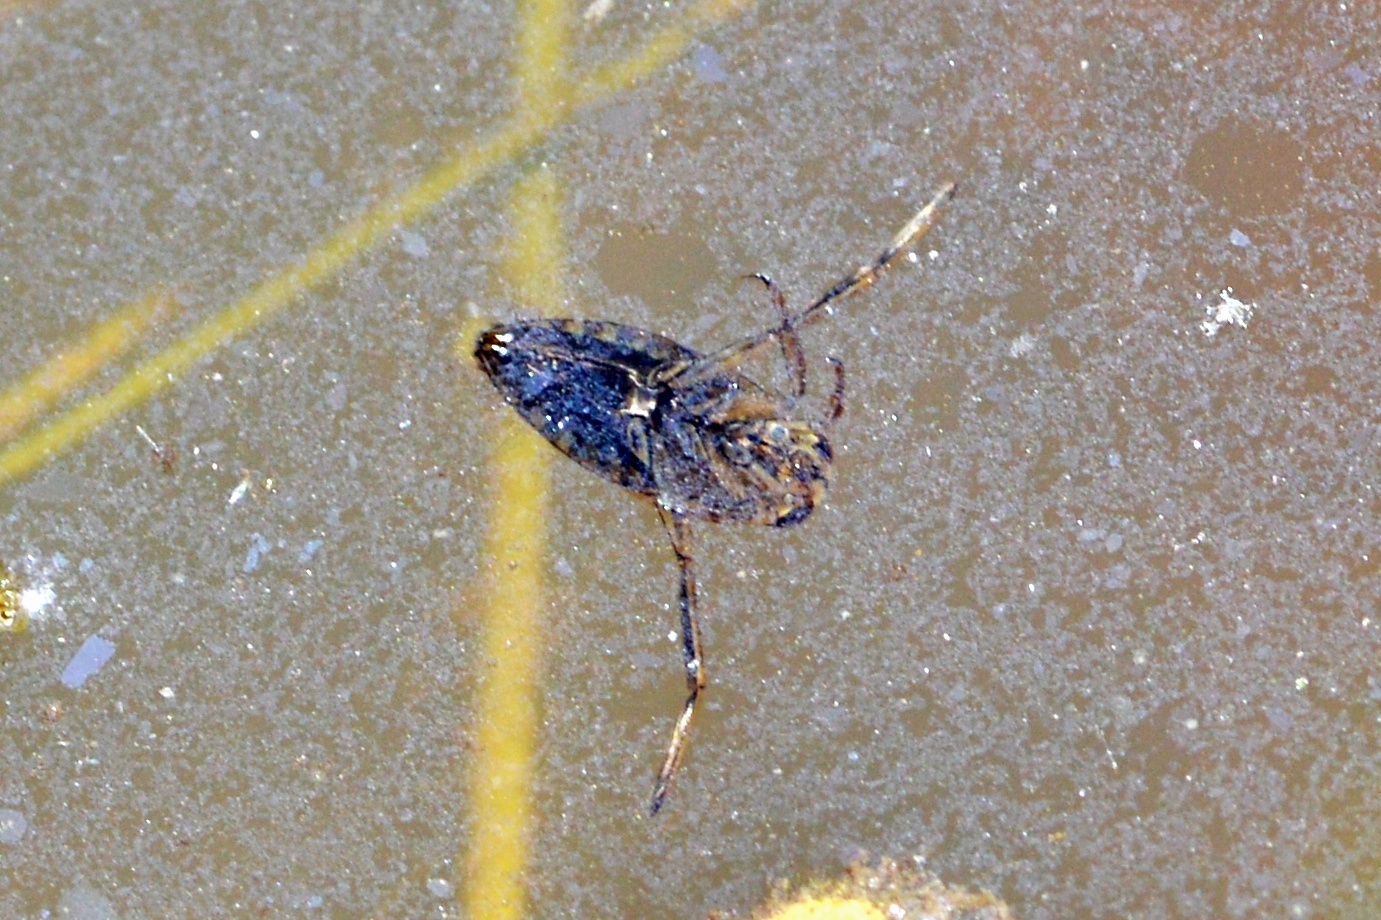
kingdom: Animalia
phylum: Arthropoda
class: Insecta
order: Hemiptera
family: Notonectidae
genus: Notonecta
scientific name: Notonecta
